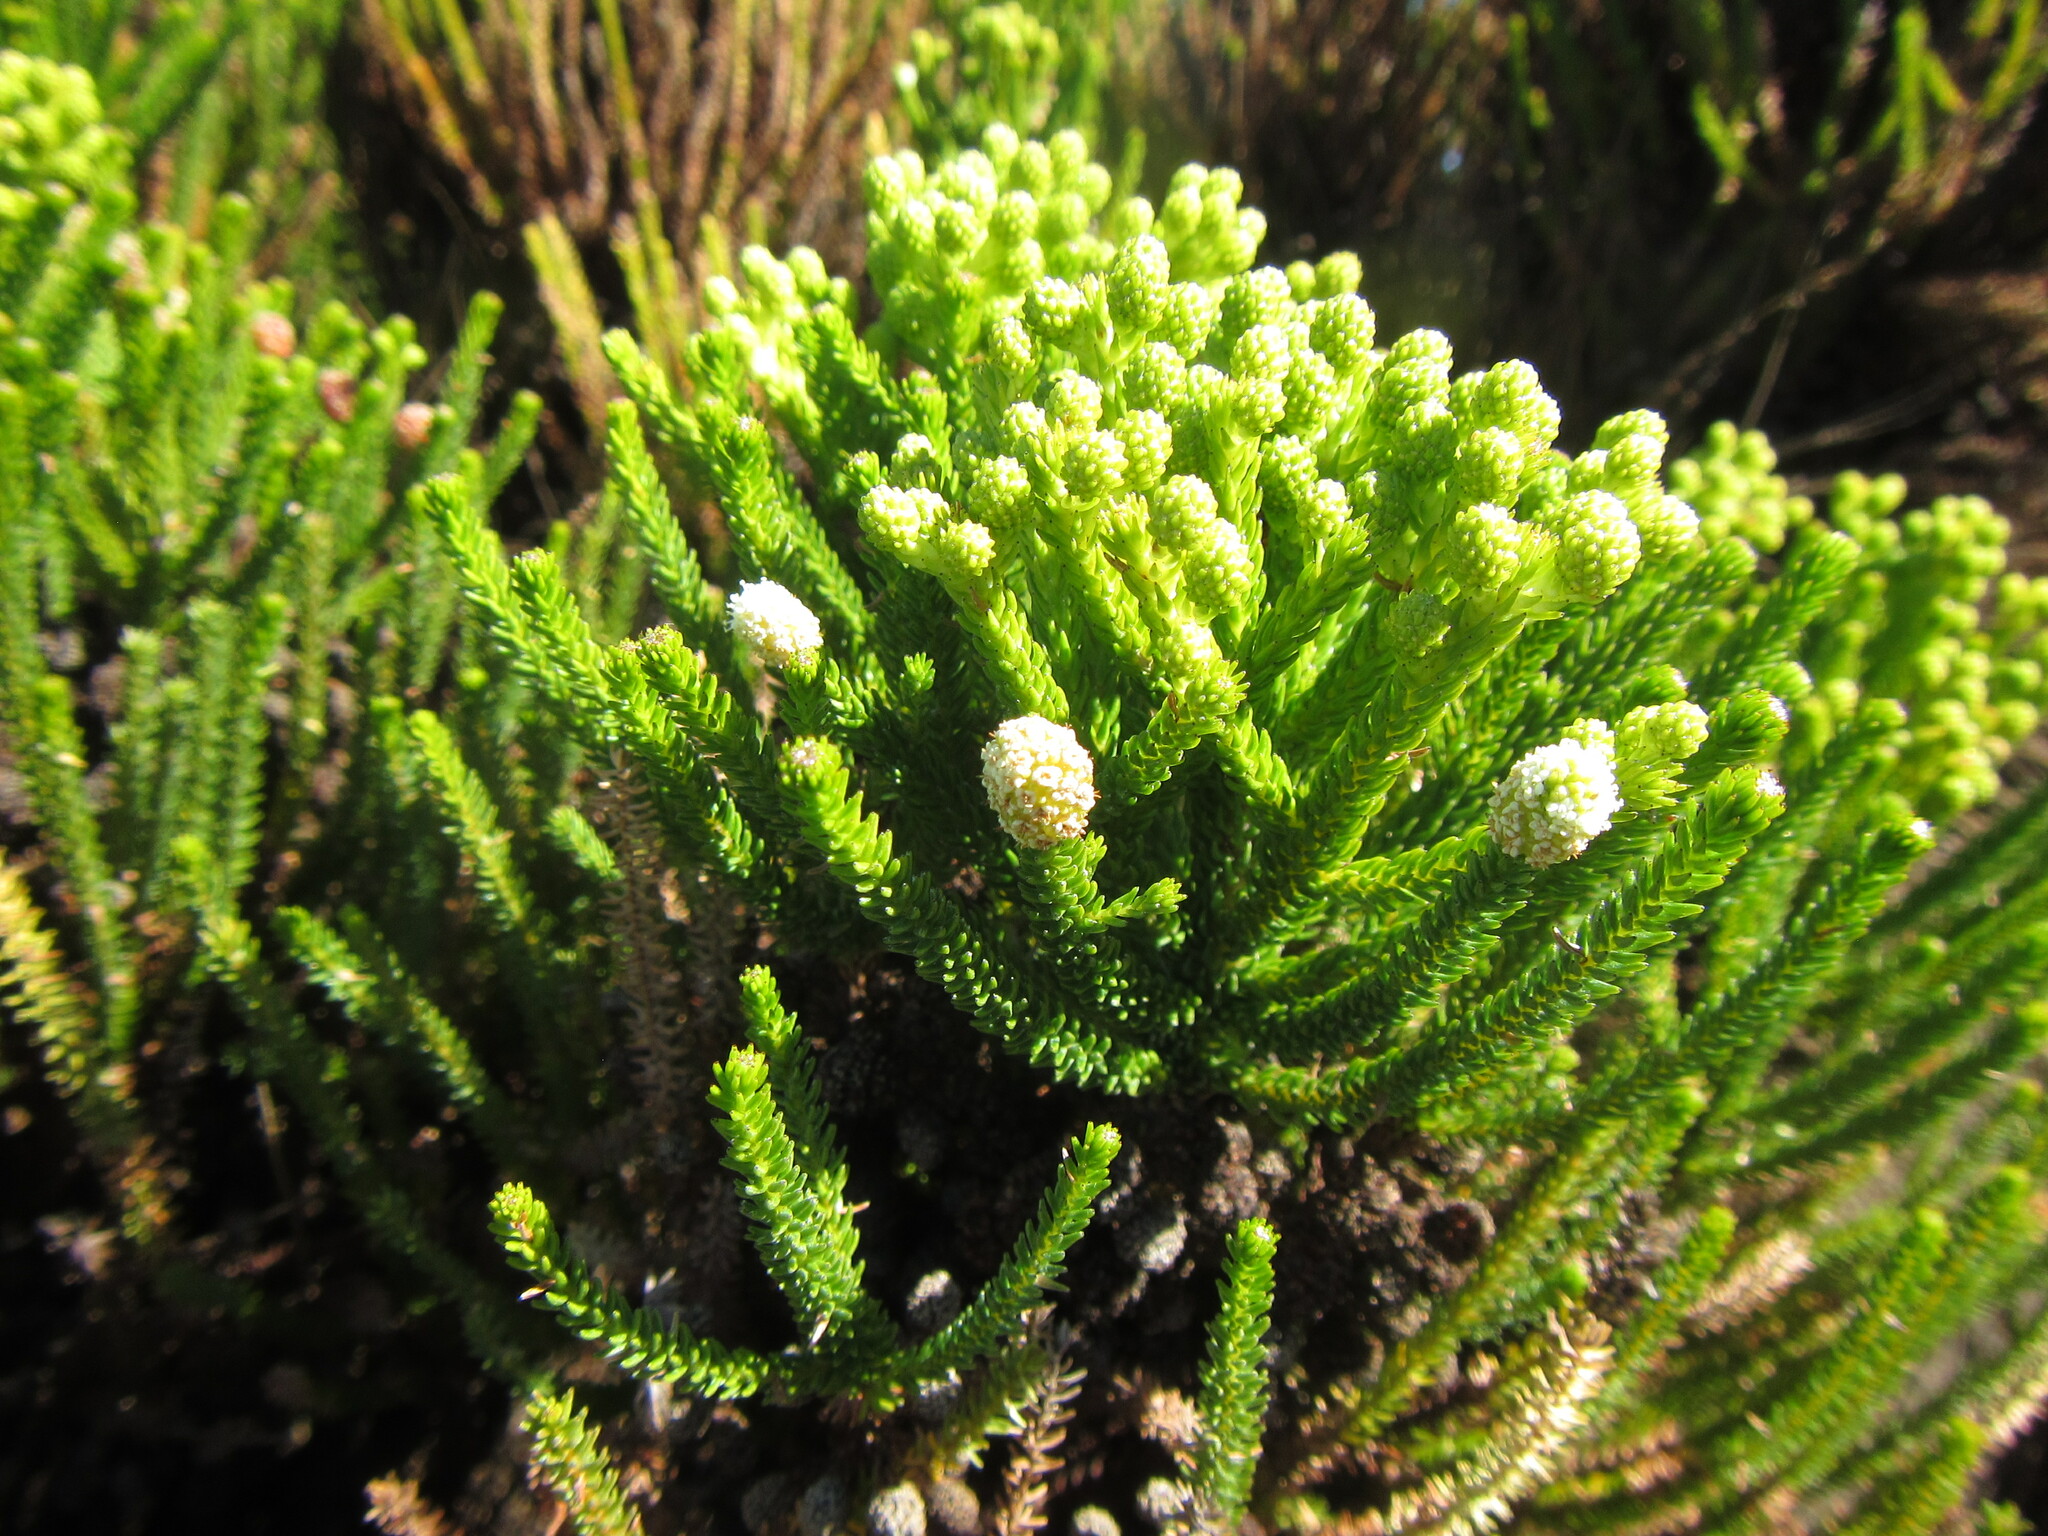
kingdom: Plantae
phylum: Tracheophyta
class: Magnoliopsida
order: Bruniales
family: Bruniaceae
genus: Berzelia
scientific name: Berzelia alopecurioides
